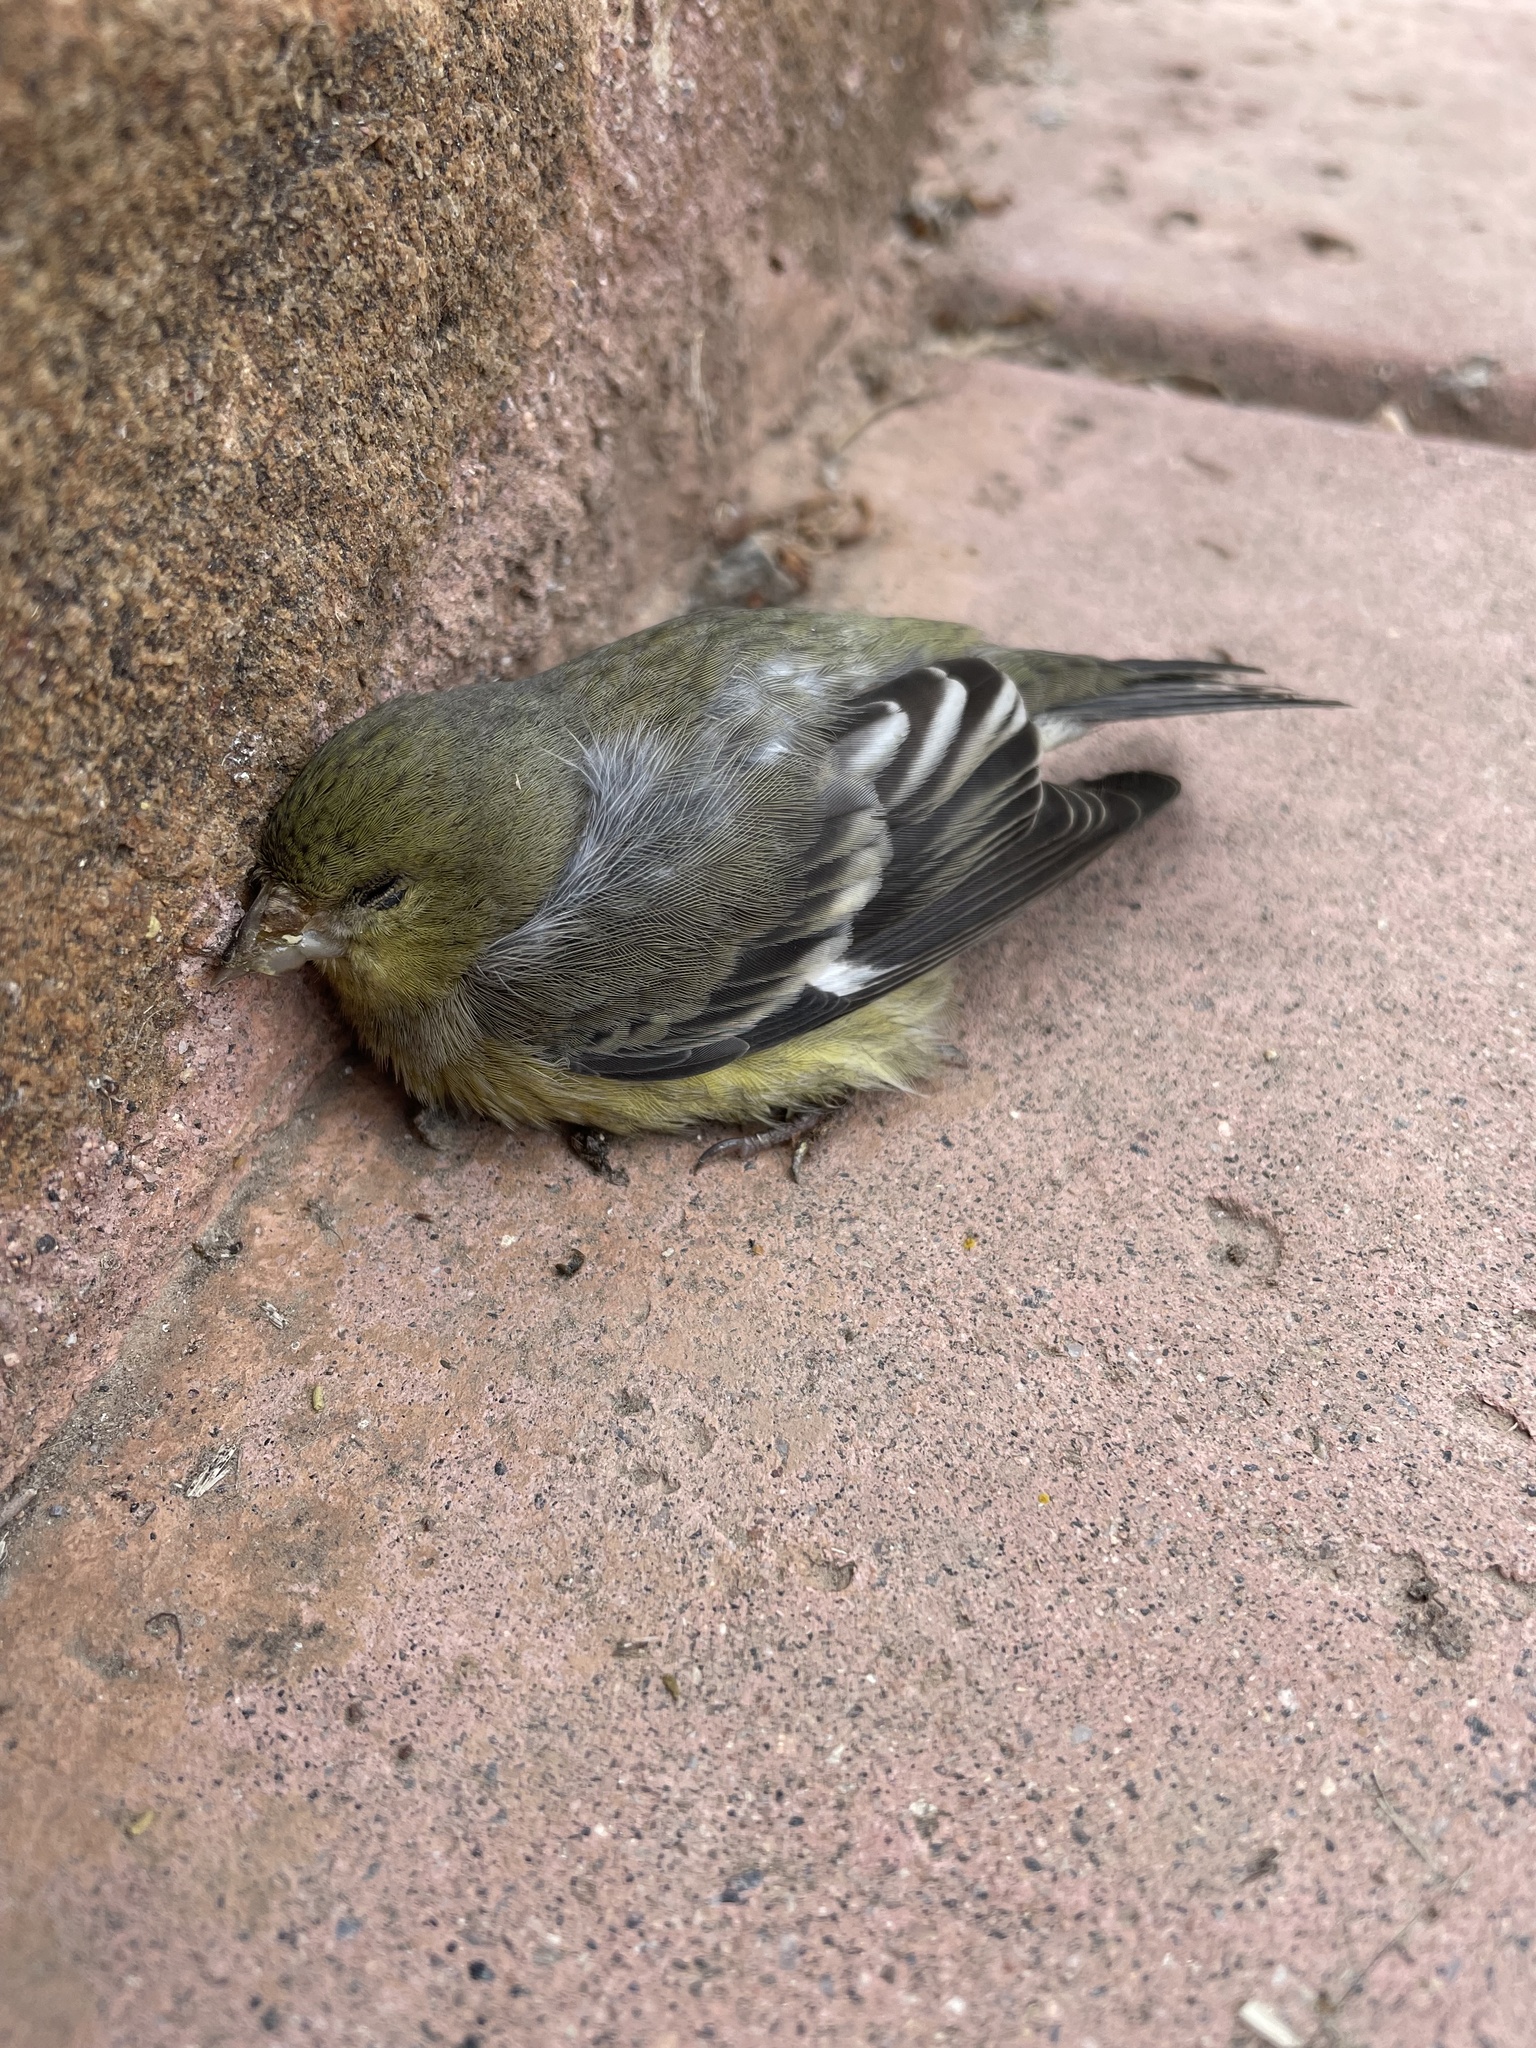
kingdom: Animalia
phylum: Chordata
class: Aves
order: Passeriformes
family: Fringillidae
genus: Spinus
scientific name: Spinus psaltria
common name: Lesser goldfinch
